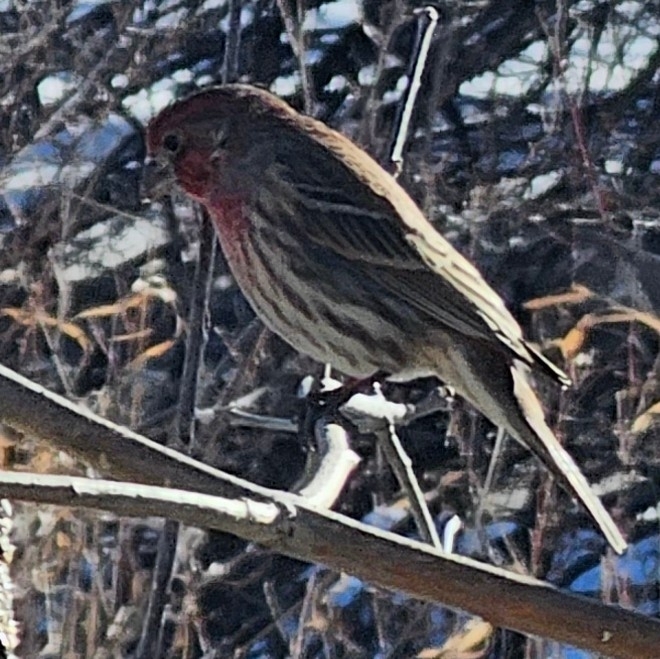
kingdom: Animalia
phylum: Chordata
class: Aves
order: Passeriformes
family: Fringillidae
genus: Haemorhous
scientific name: Haemorhous mexicanus
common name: House finch
